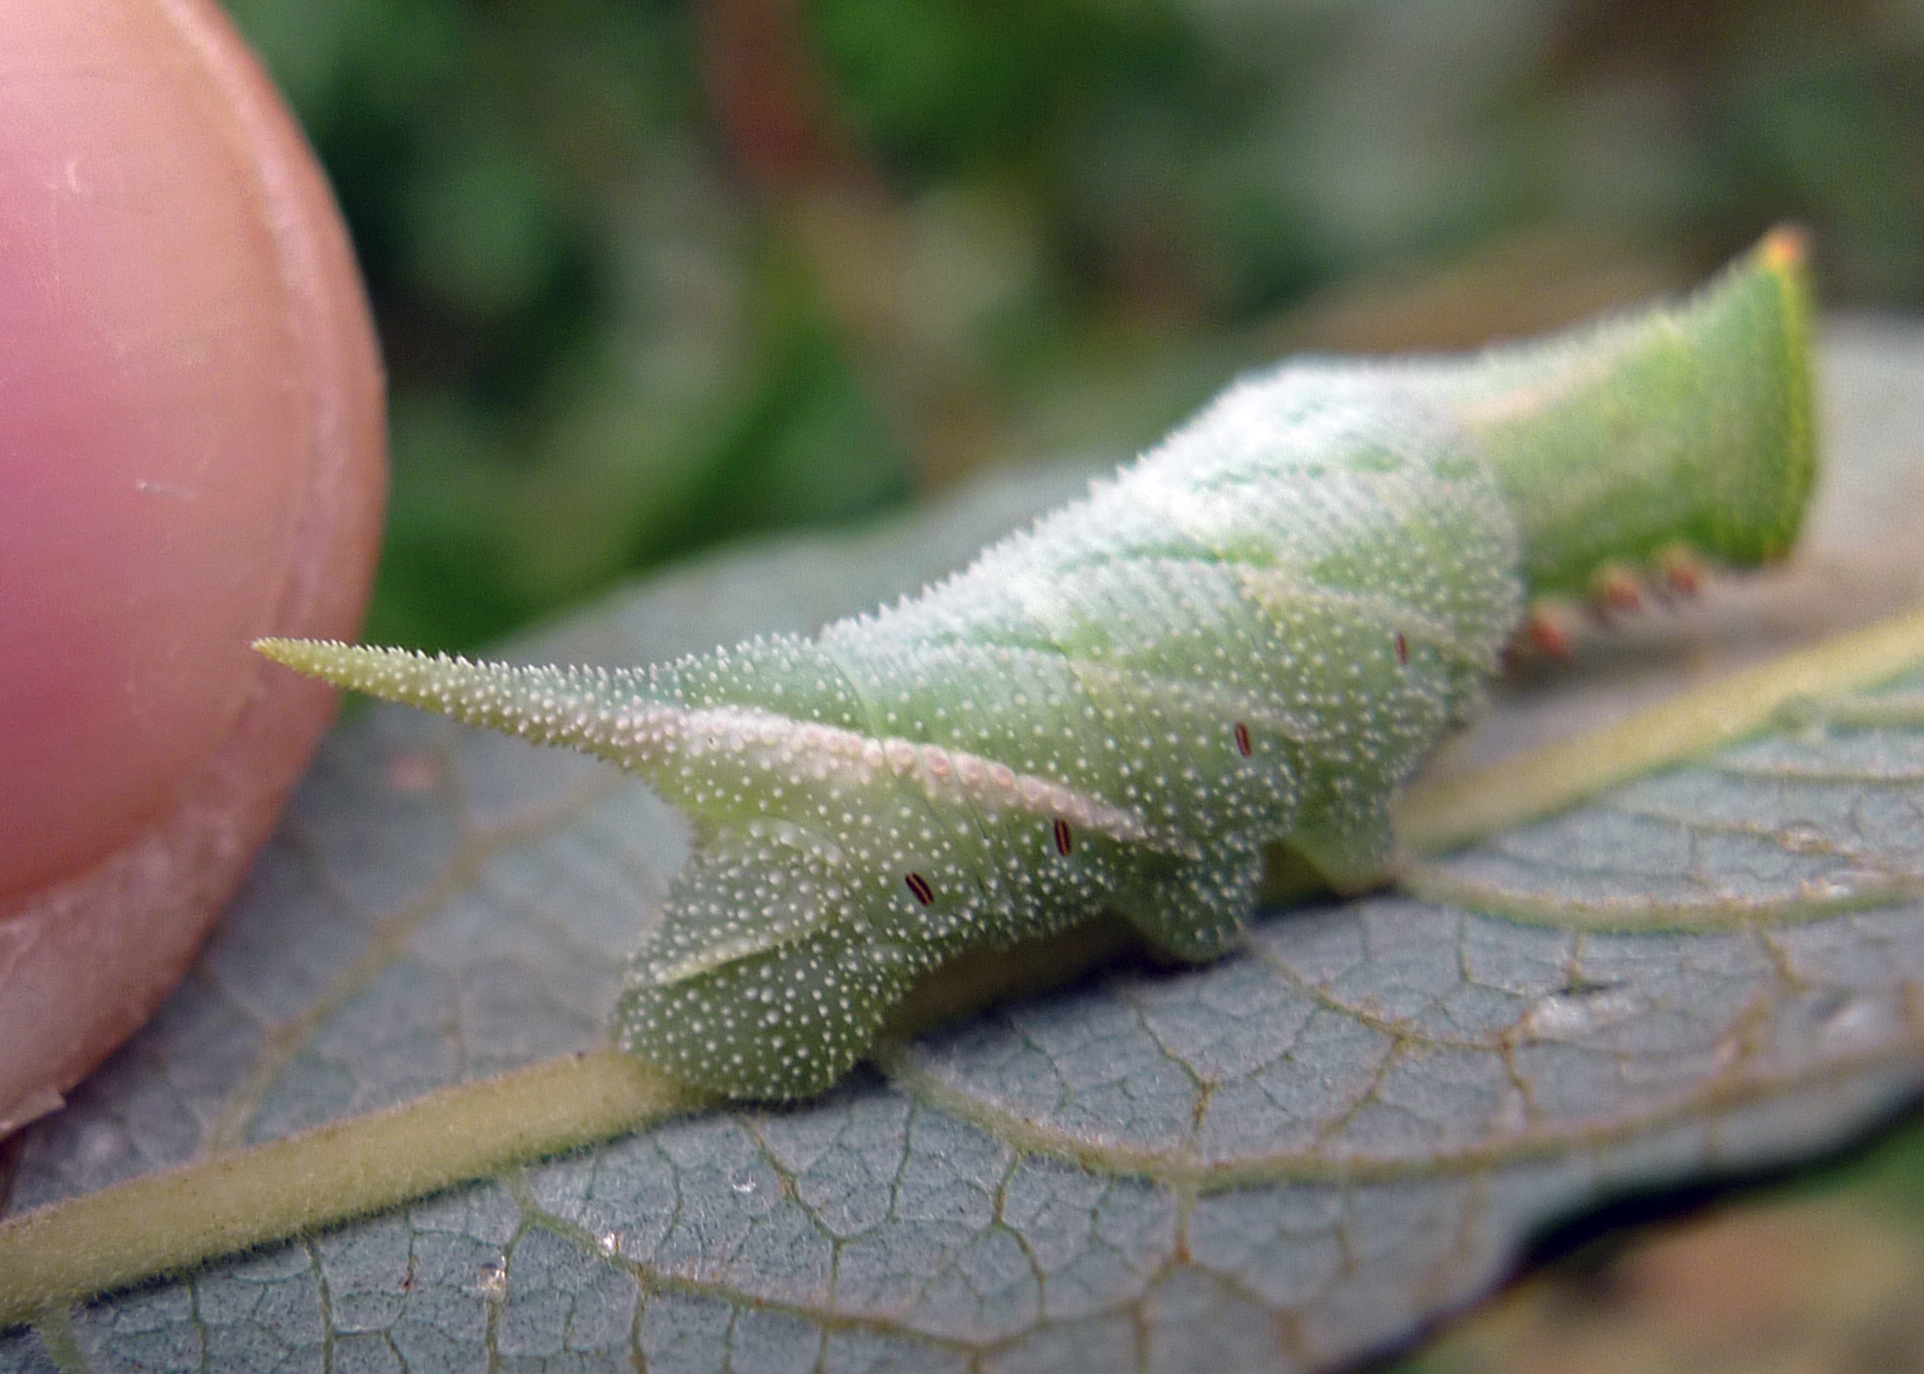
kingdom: Animalia
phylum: Arthropoda
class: Insecta
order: Lepidoptera
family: Sphingidae
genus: Smerinthus
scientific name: Smerinthus ocellata
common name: Eyed hawk-moth
